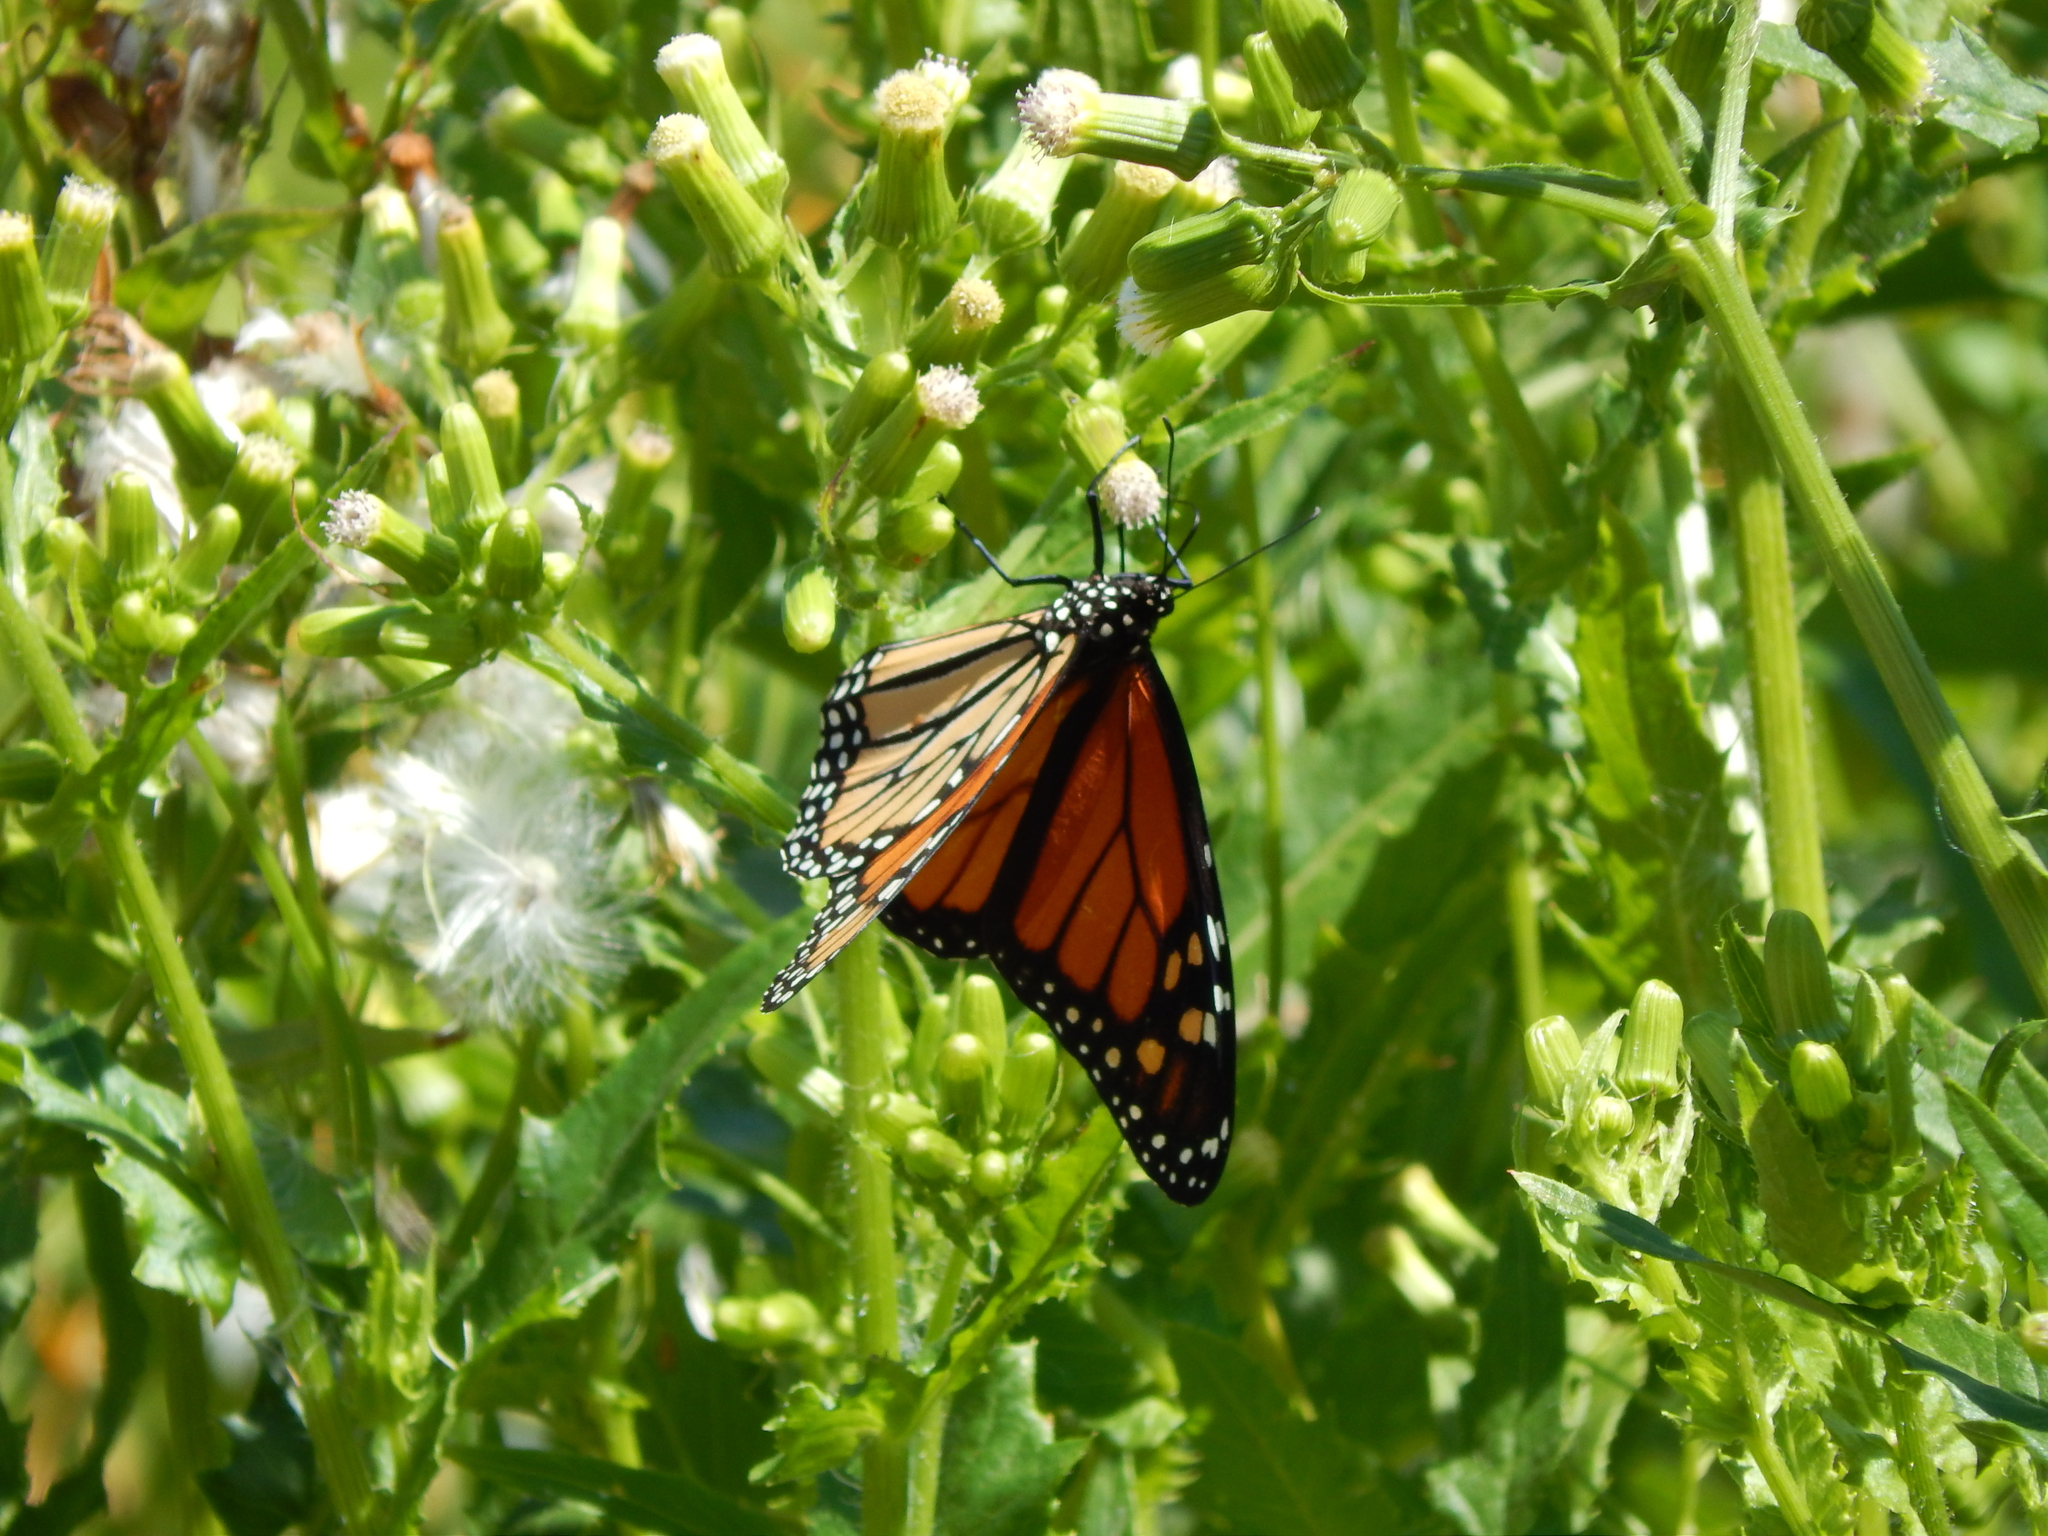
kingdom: Animalia
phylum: Arthropoda
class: Insecta
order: Lepidoptera
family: Nymphalidae
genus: Danaus
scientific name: Danaus plexippus
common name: Monarch
